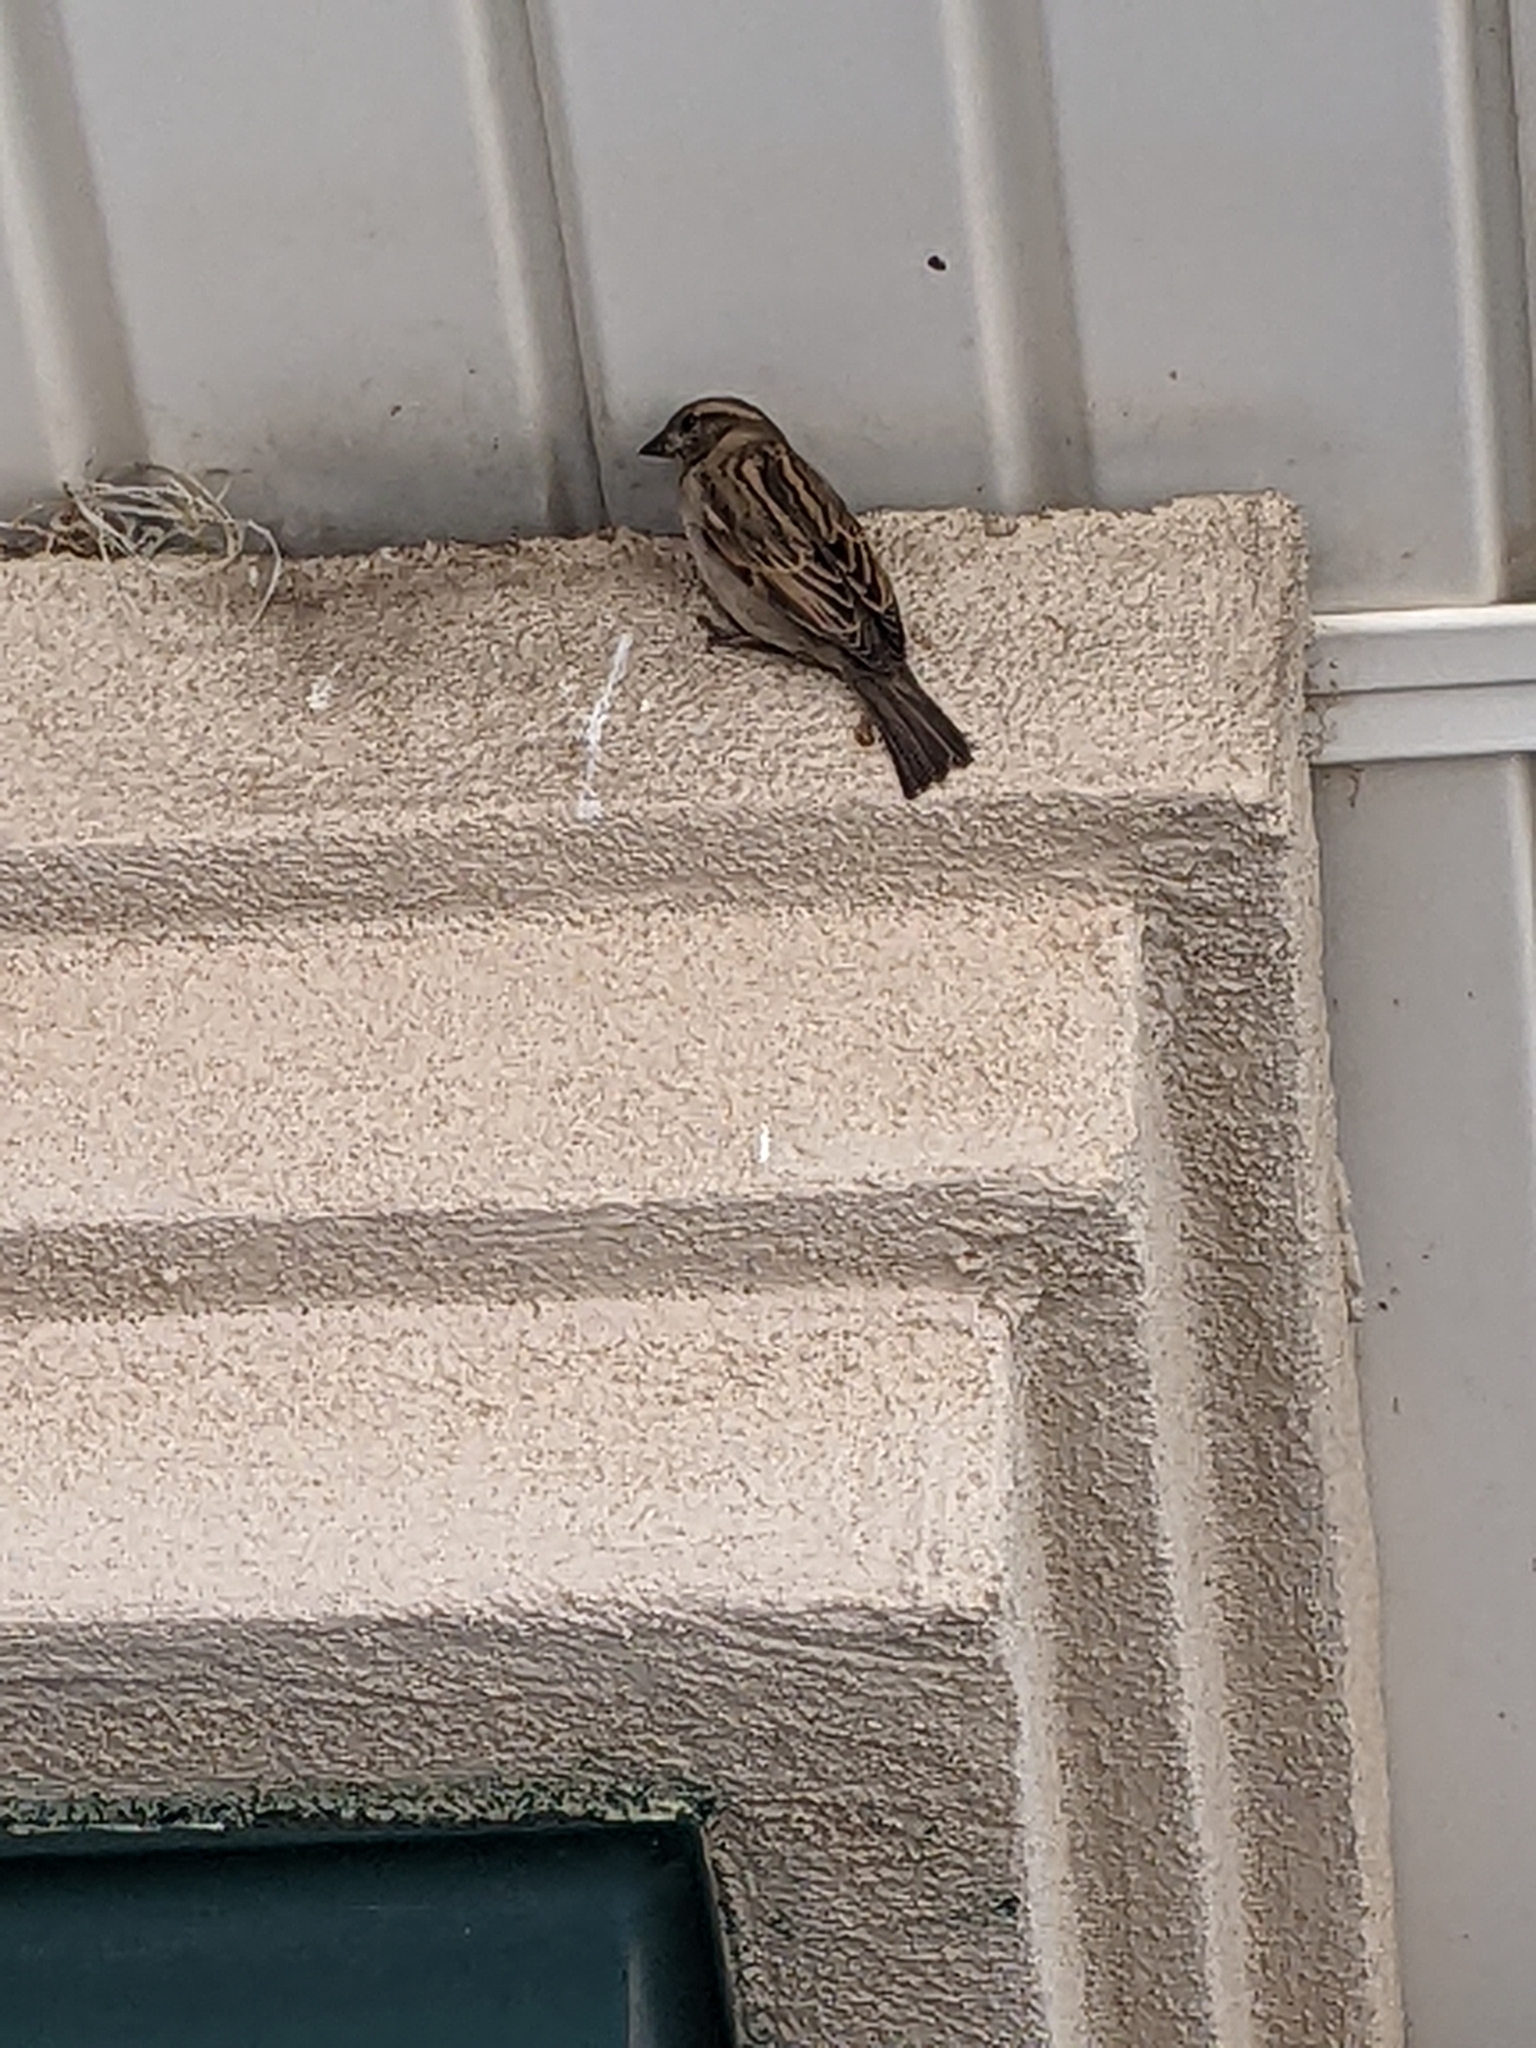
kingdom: Animalia
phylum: Chordata
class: Aves
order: Passeriformes
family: Passeridae
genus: Passer
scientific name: Passer domesticus
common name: House sparrow
